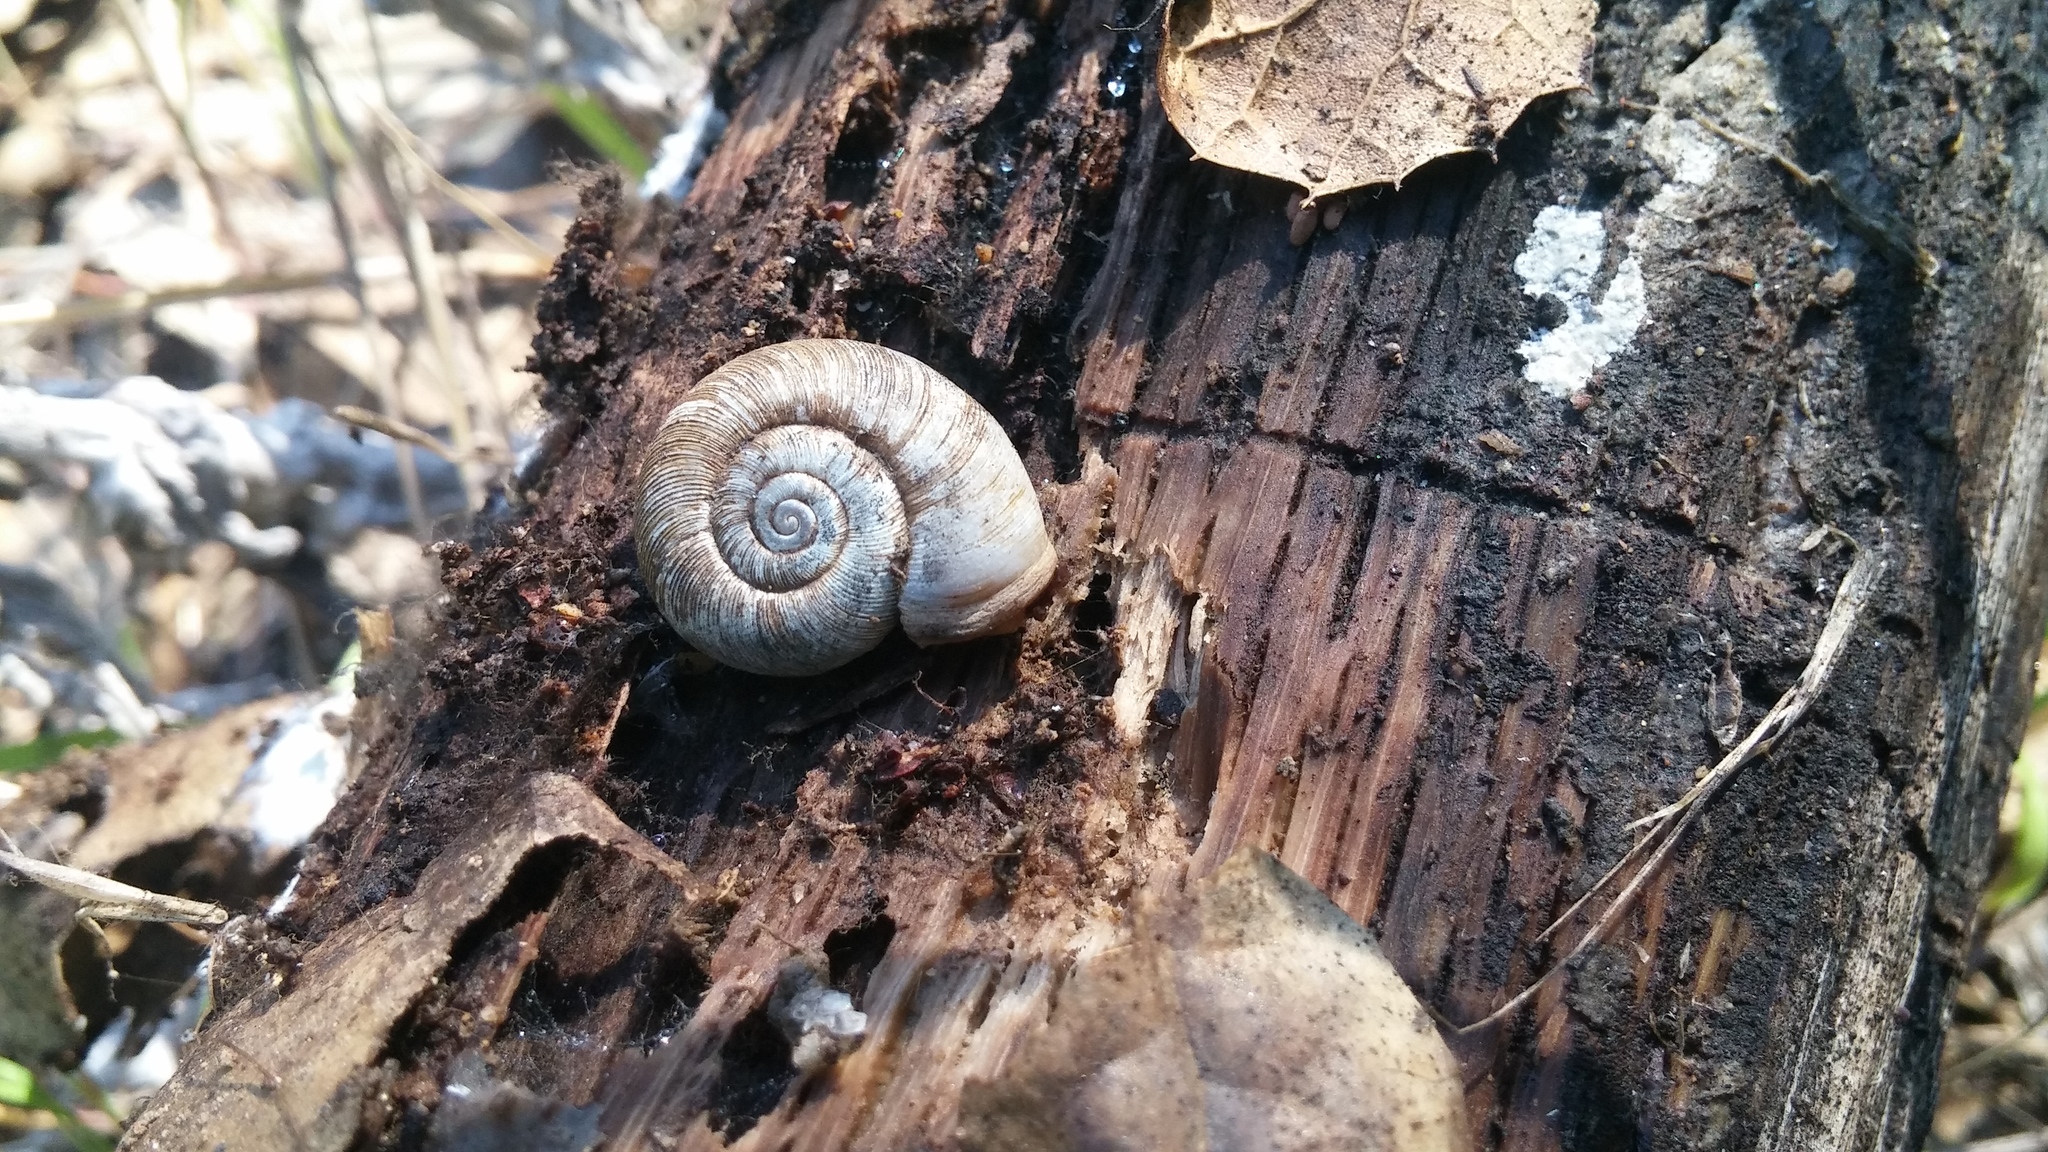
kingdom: Animalia
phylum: Mollusca
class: Gastropoda
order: Stylommatophora
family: Haplotrematidae
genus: Haplotrema
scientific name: Haplotrema transfuga
